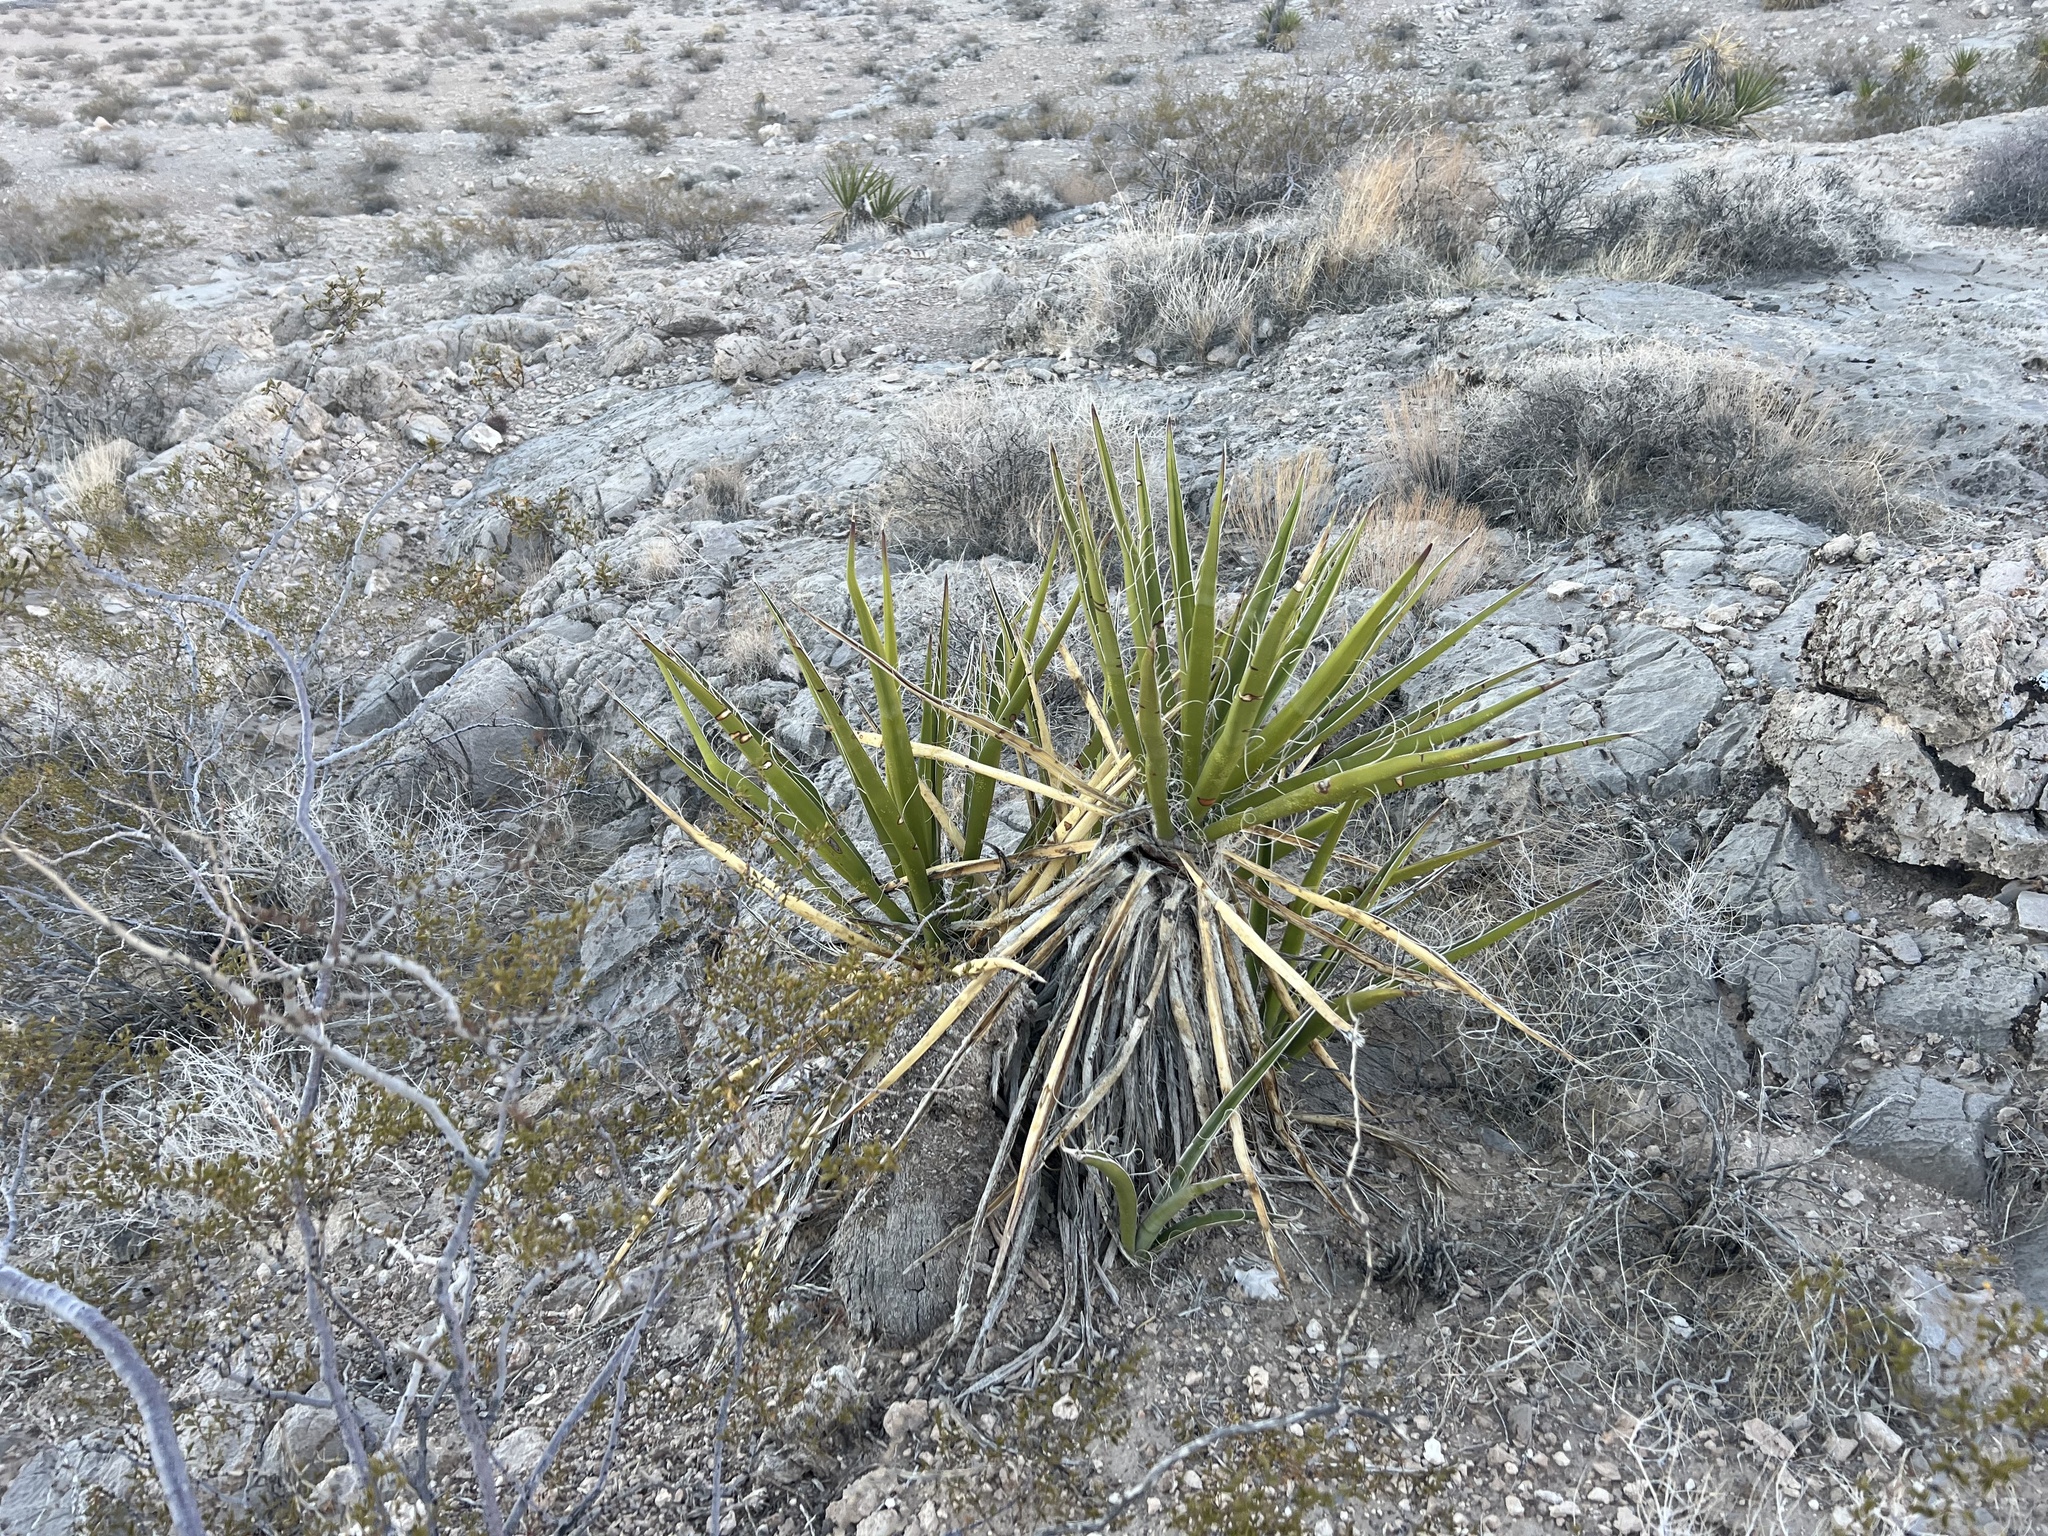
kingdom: Plantae
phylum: Tracheophyta
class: Liliopsida
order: Asparagales
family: Asparagaceae
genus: Yucca
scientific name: Yucca schidigera
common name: Mojave yucca
